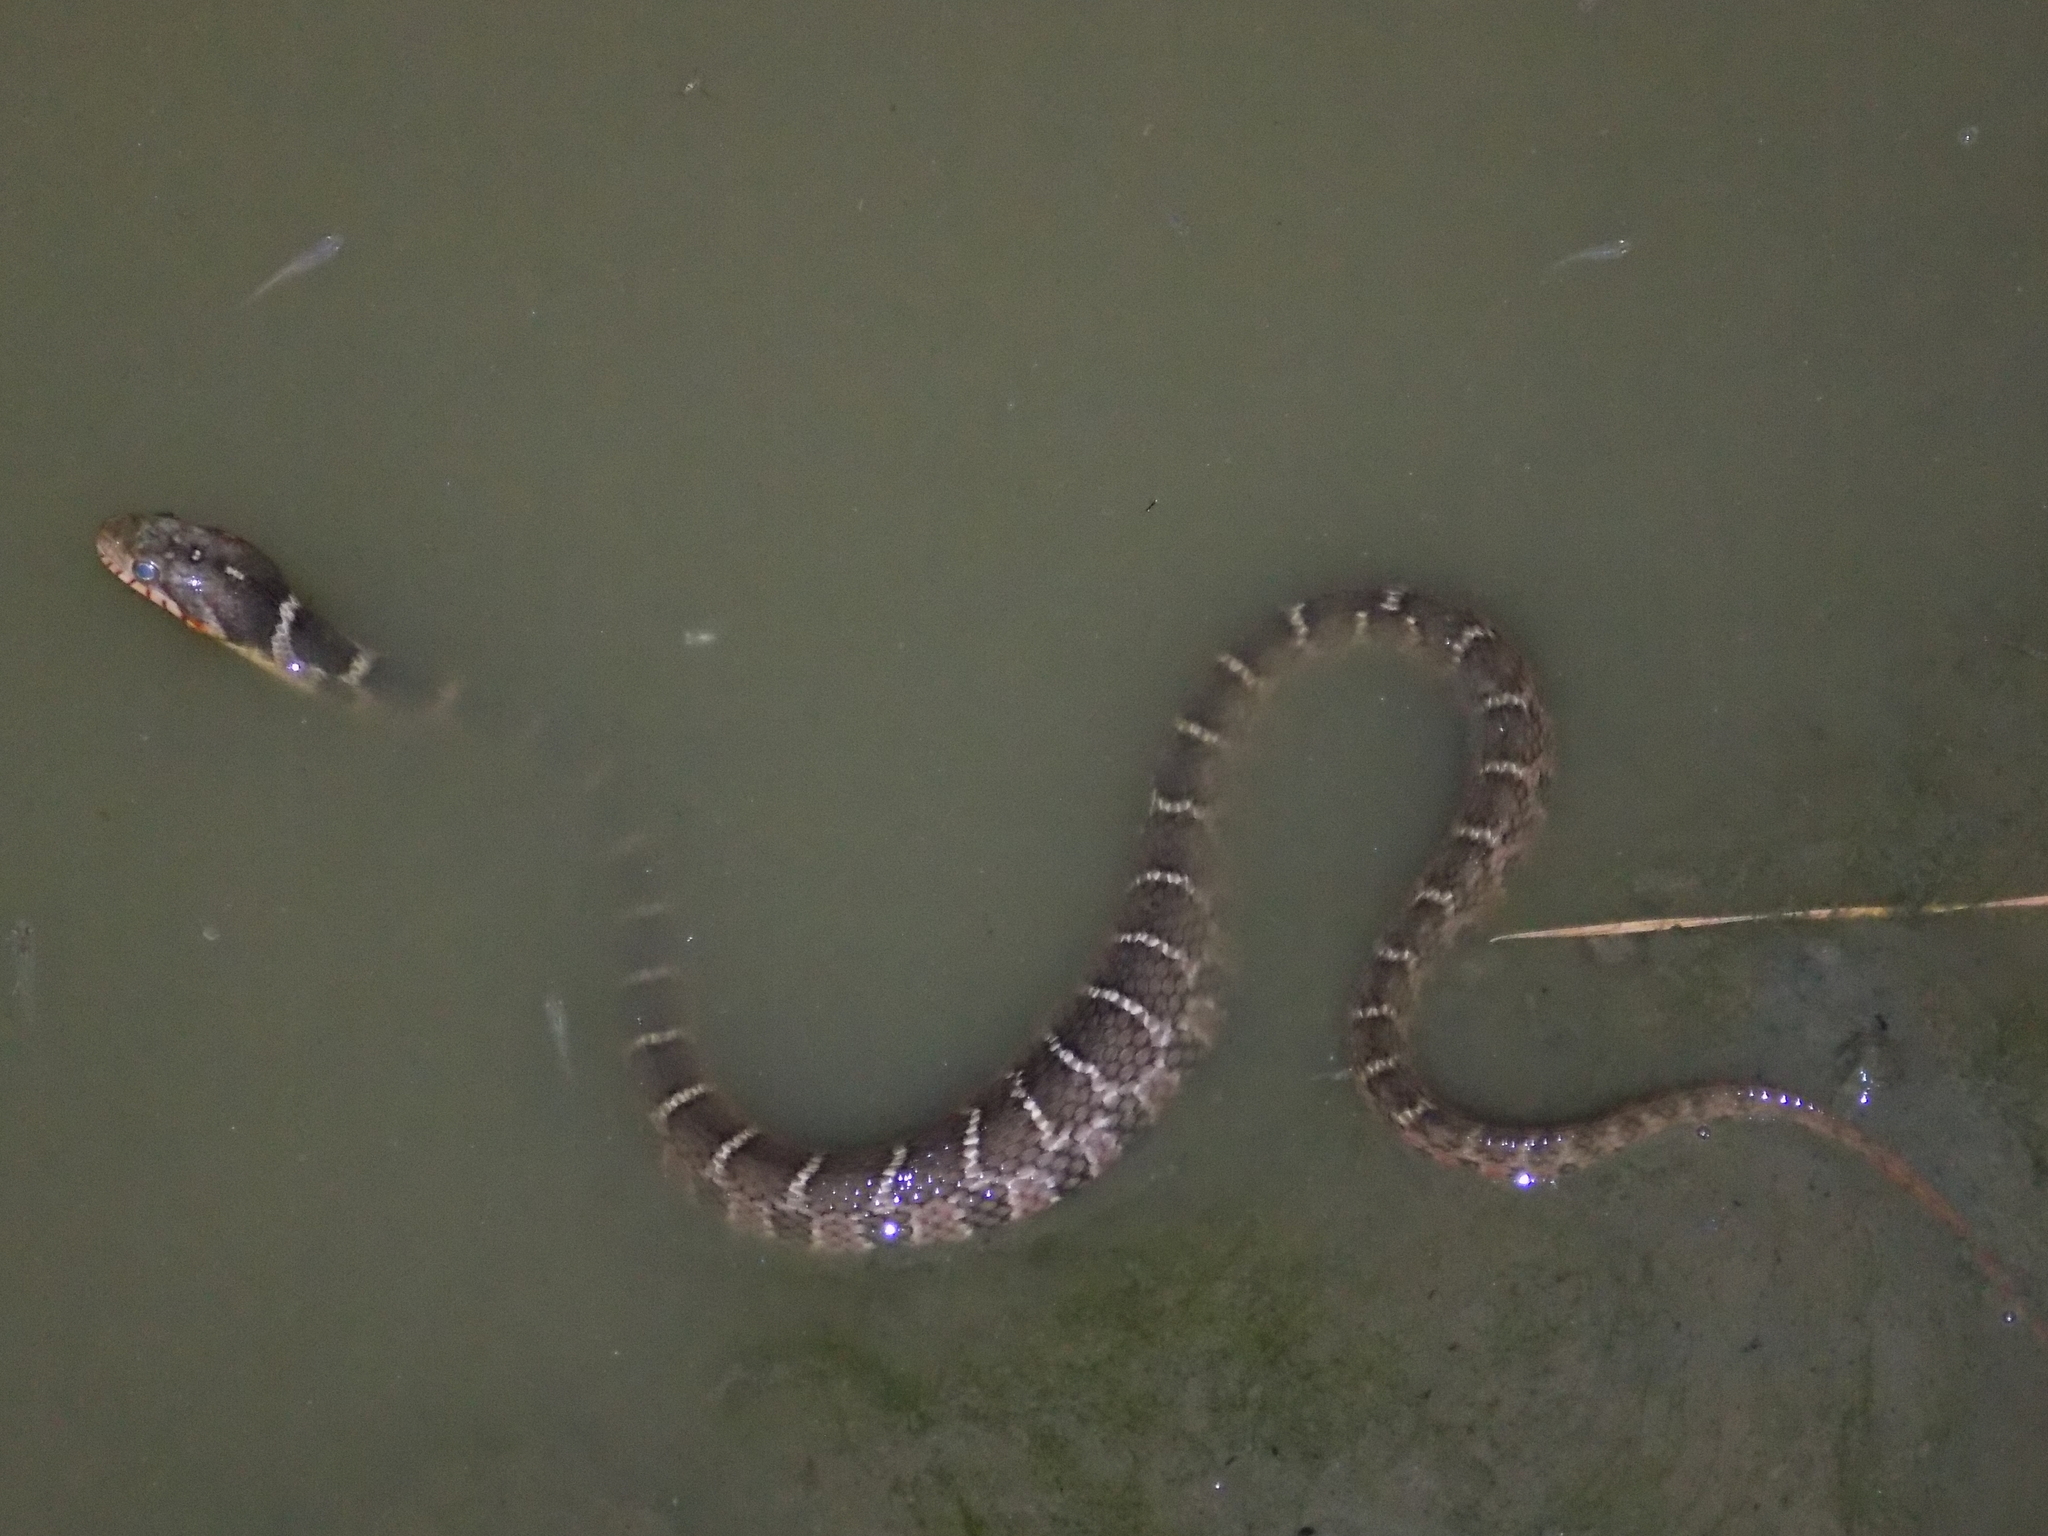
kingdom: Animalia
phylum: Chordata
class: Squamata
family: Colubridae
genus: Nerodia
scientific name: Nerodia erythrogaster
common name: Plainbelly water snake
